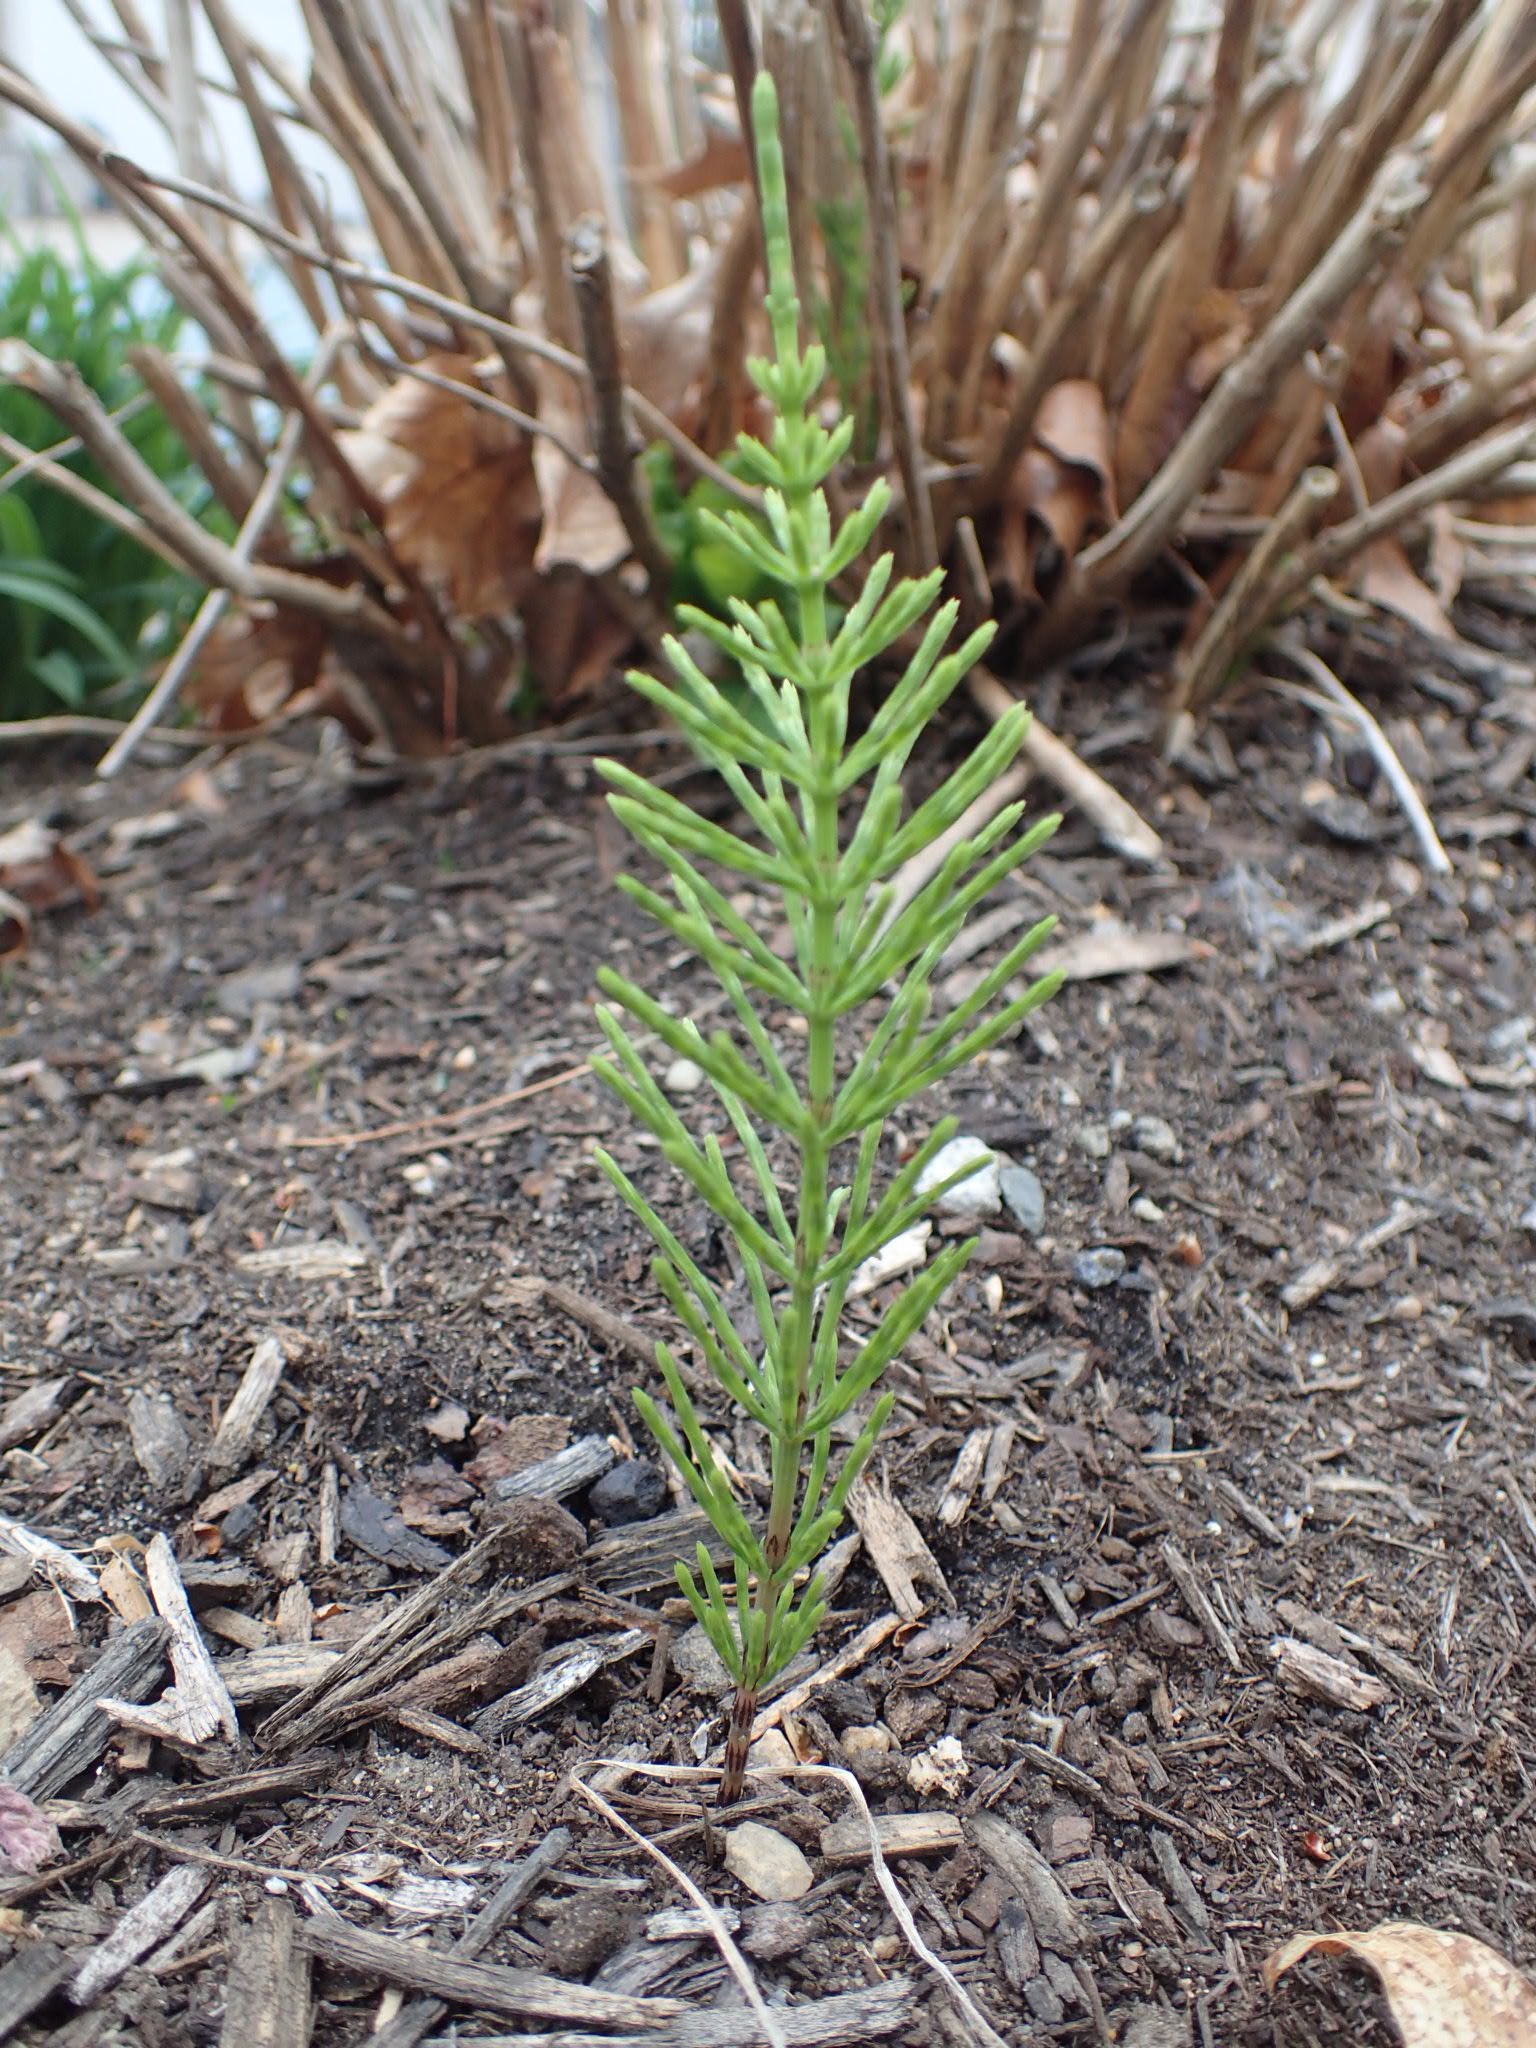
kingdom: Plantae
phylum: Tracheophyta
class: Polypodiopsida
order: Equisetales
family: Equisetaceae
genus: Equisetum
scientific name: Equisetum arvense
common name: Field horsetail
